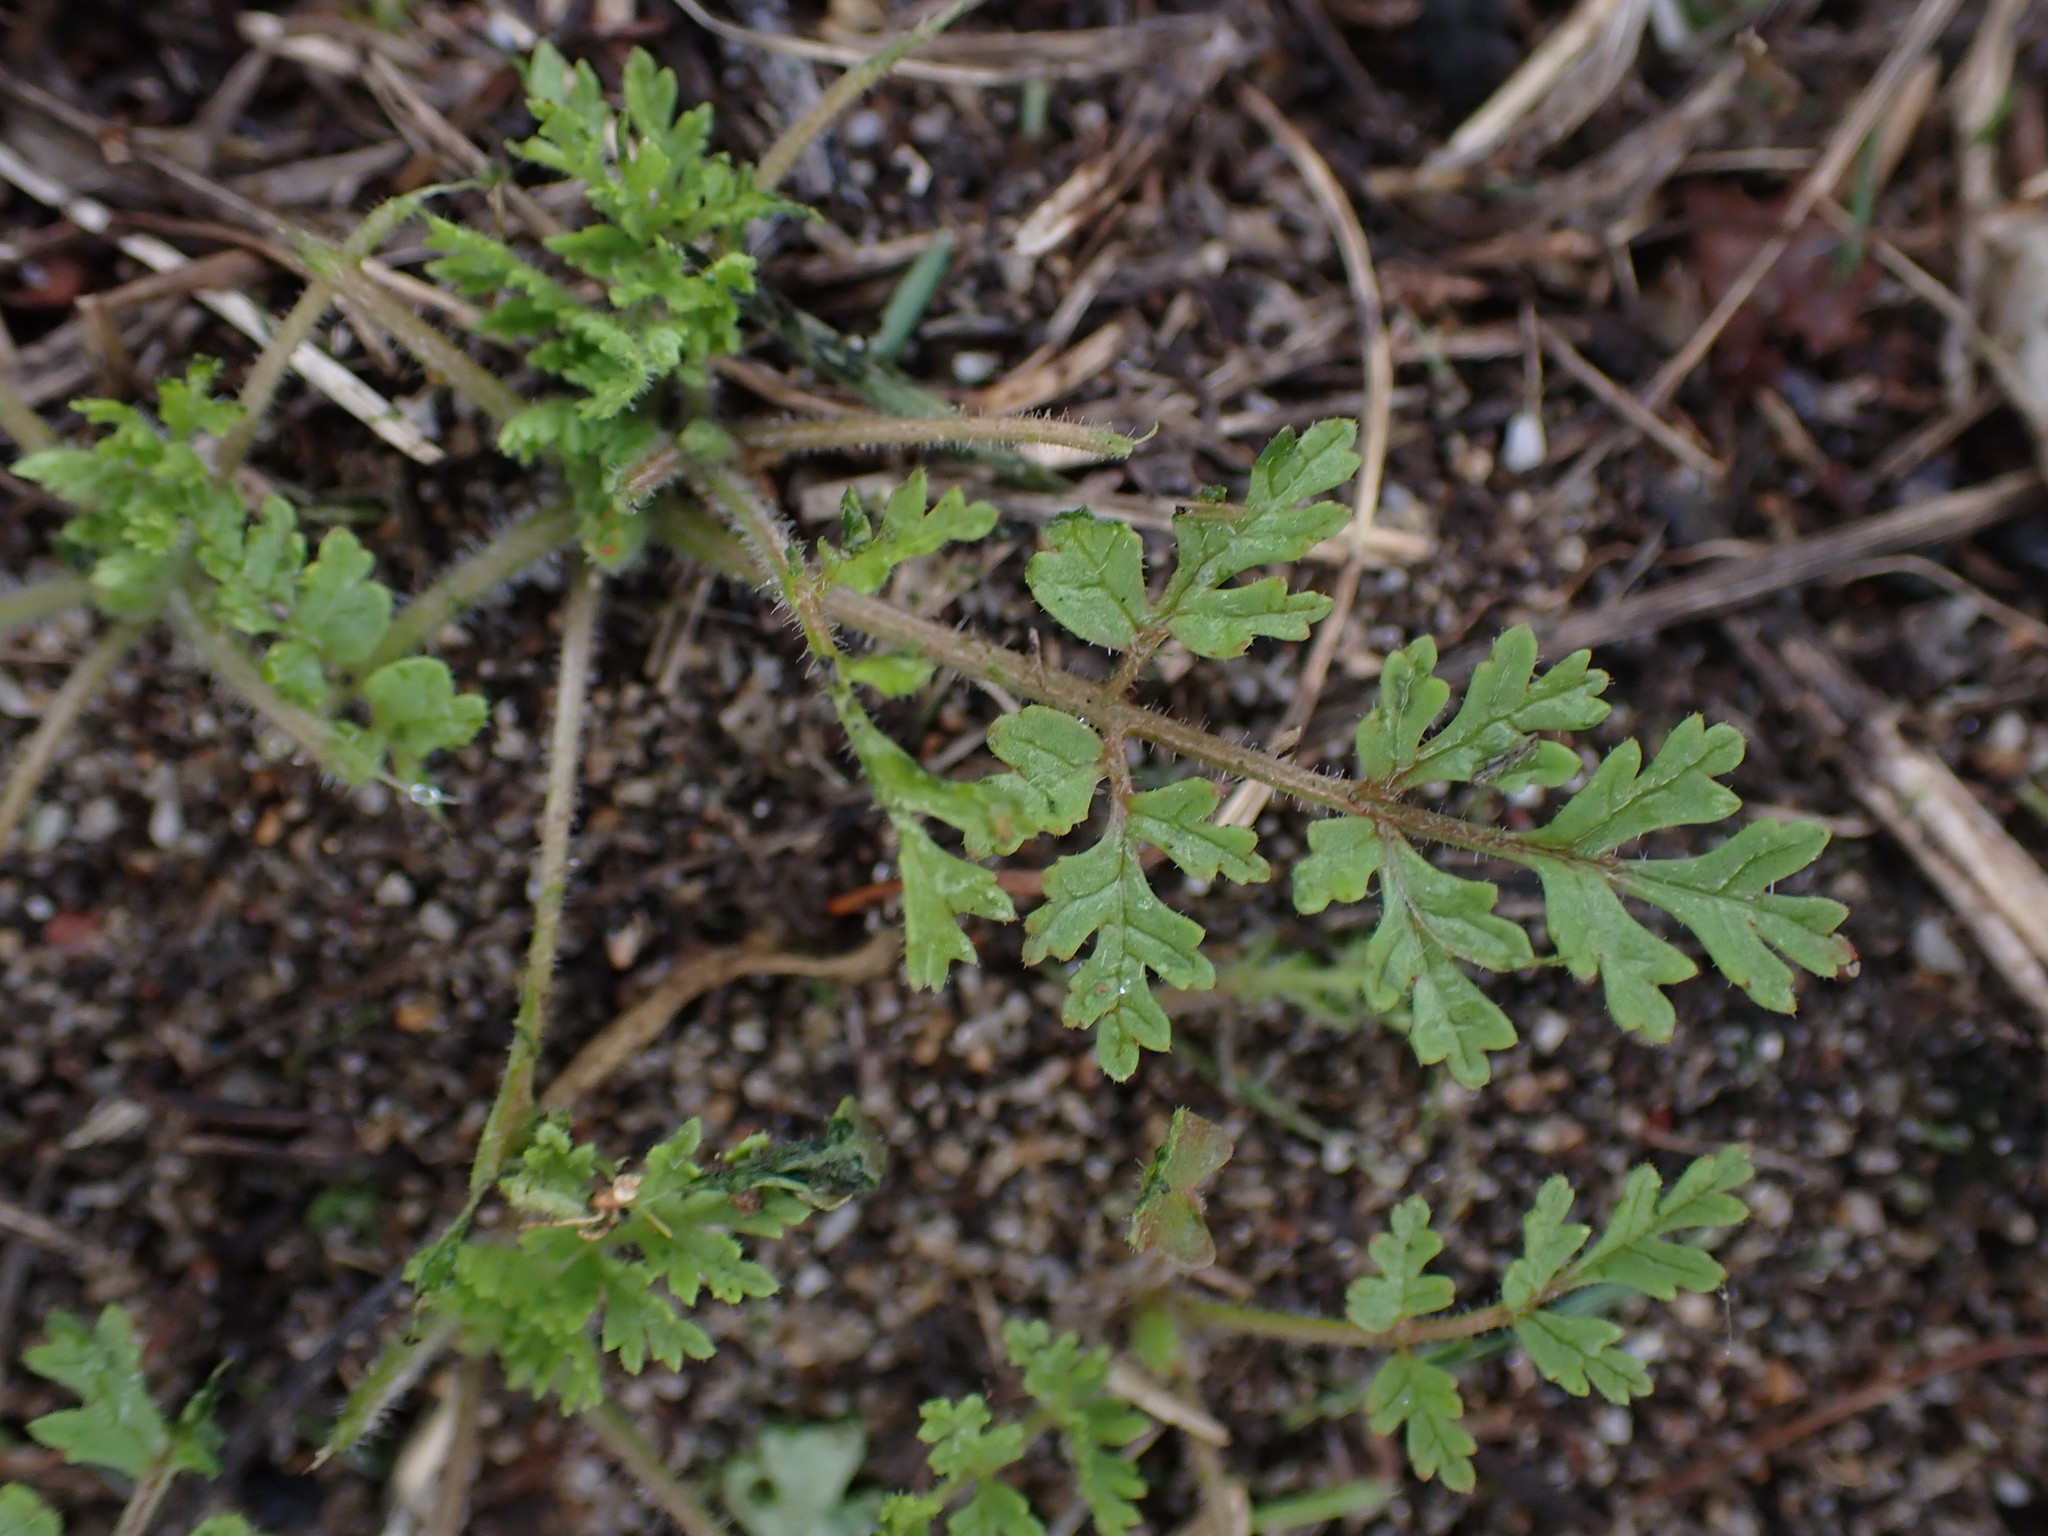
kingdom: Plantae
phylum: Tracheophyta
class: Magnoliopsida
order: Geraniales
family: Geraniaceae
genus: Erodium
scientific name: Erodium cicutarium
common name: Common stork's-bill
